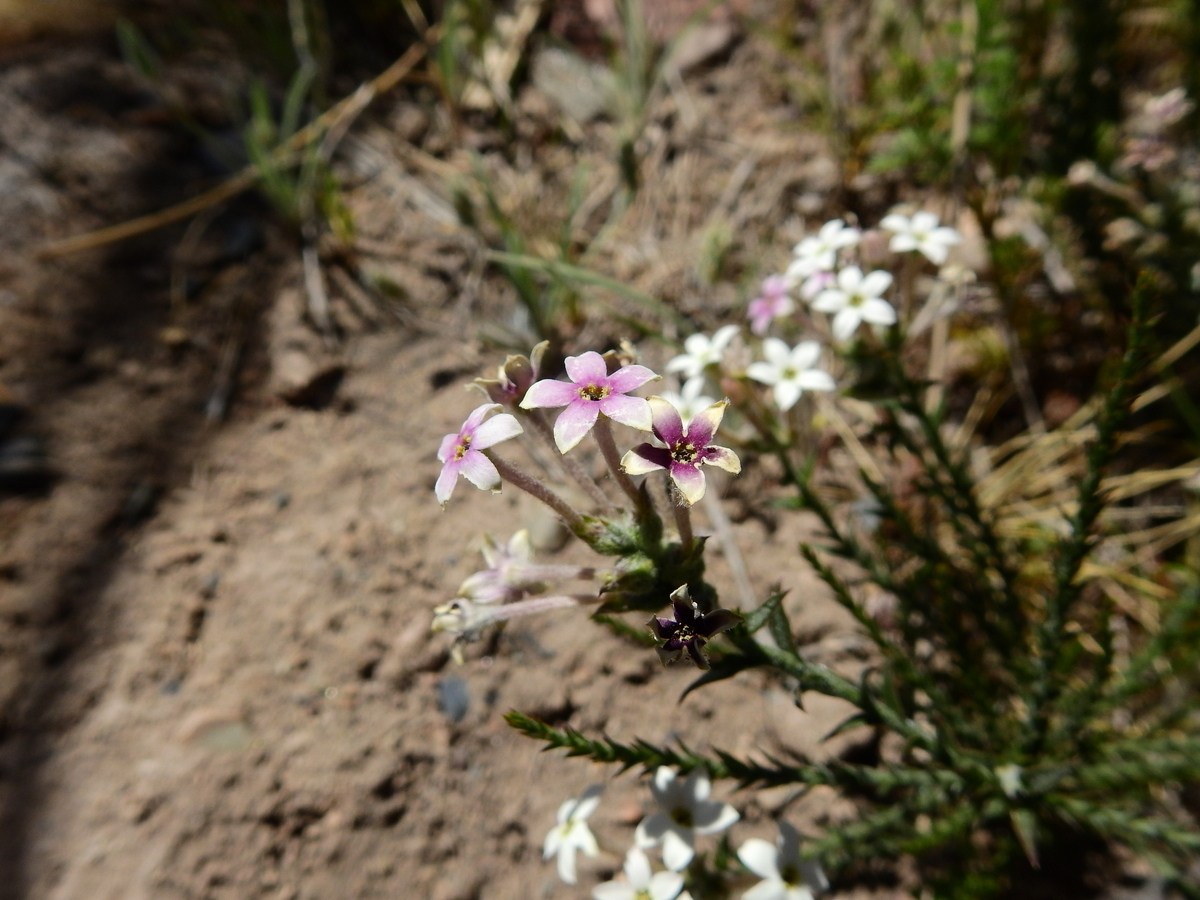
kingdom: Plantae
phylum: Tracheophyta
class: Magnoliopsida
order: Santalales
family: Schoepfiaceae
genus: Arjona
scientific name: Arjona patagonica
